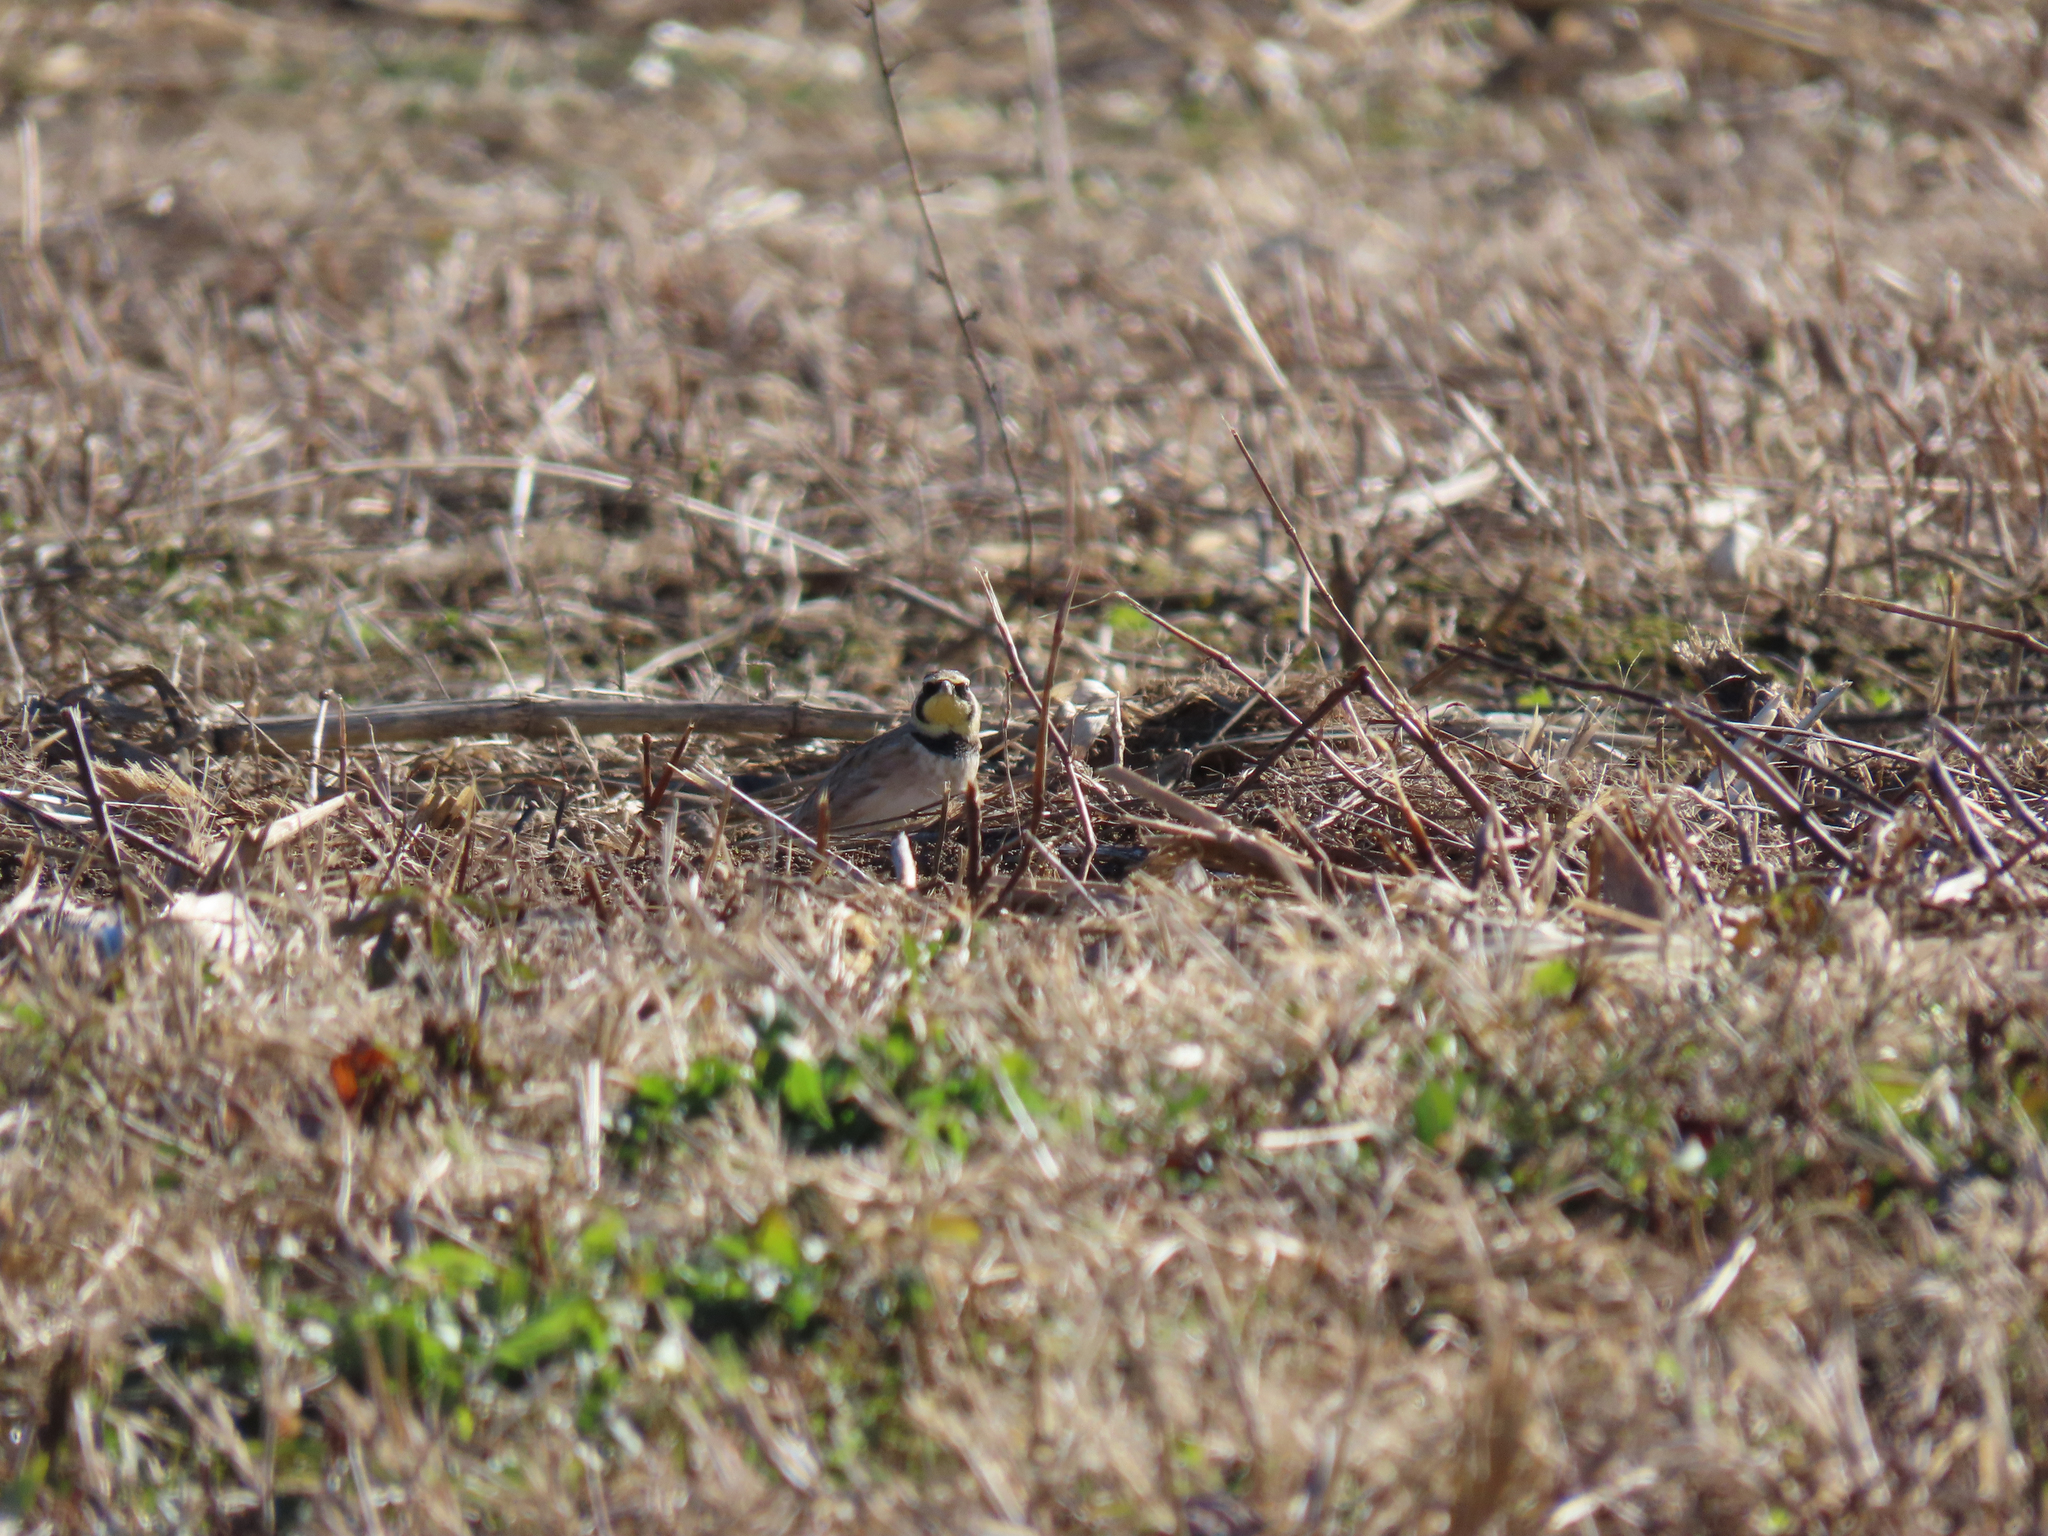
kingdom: Animalia
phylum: Chordata
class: Aves
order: Passeriformes
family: Alaudidae
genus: Eremophila
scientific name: Eremophila alpestris
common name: Horned lark
